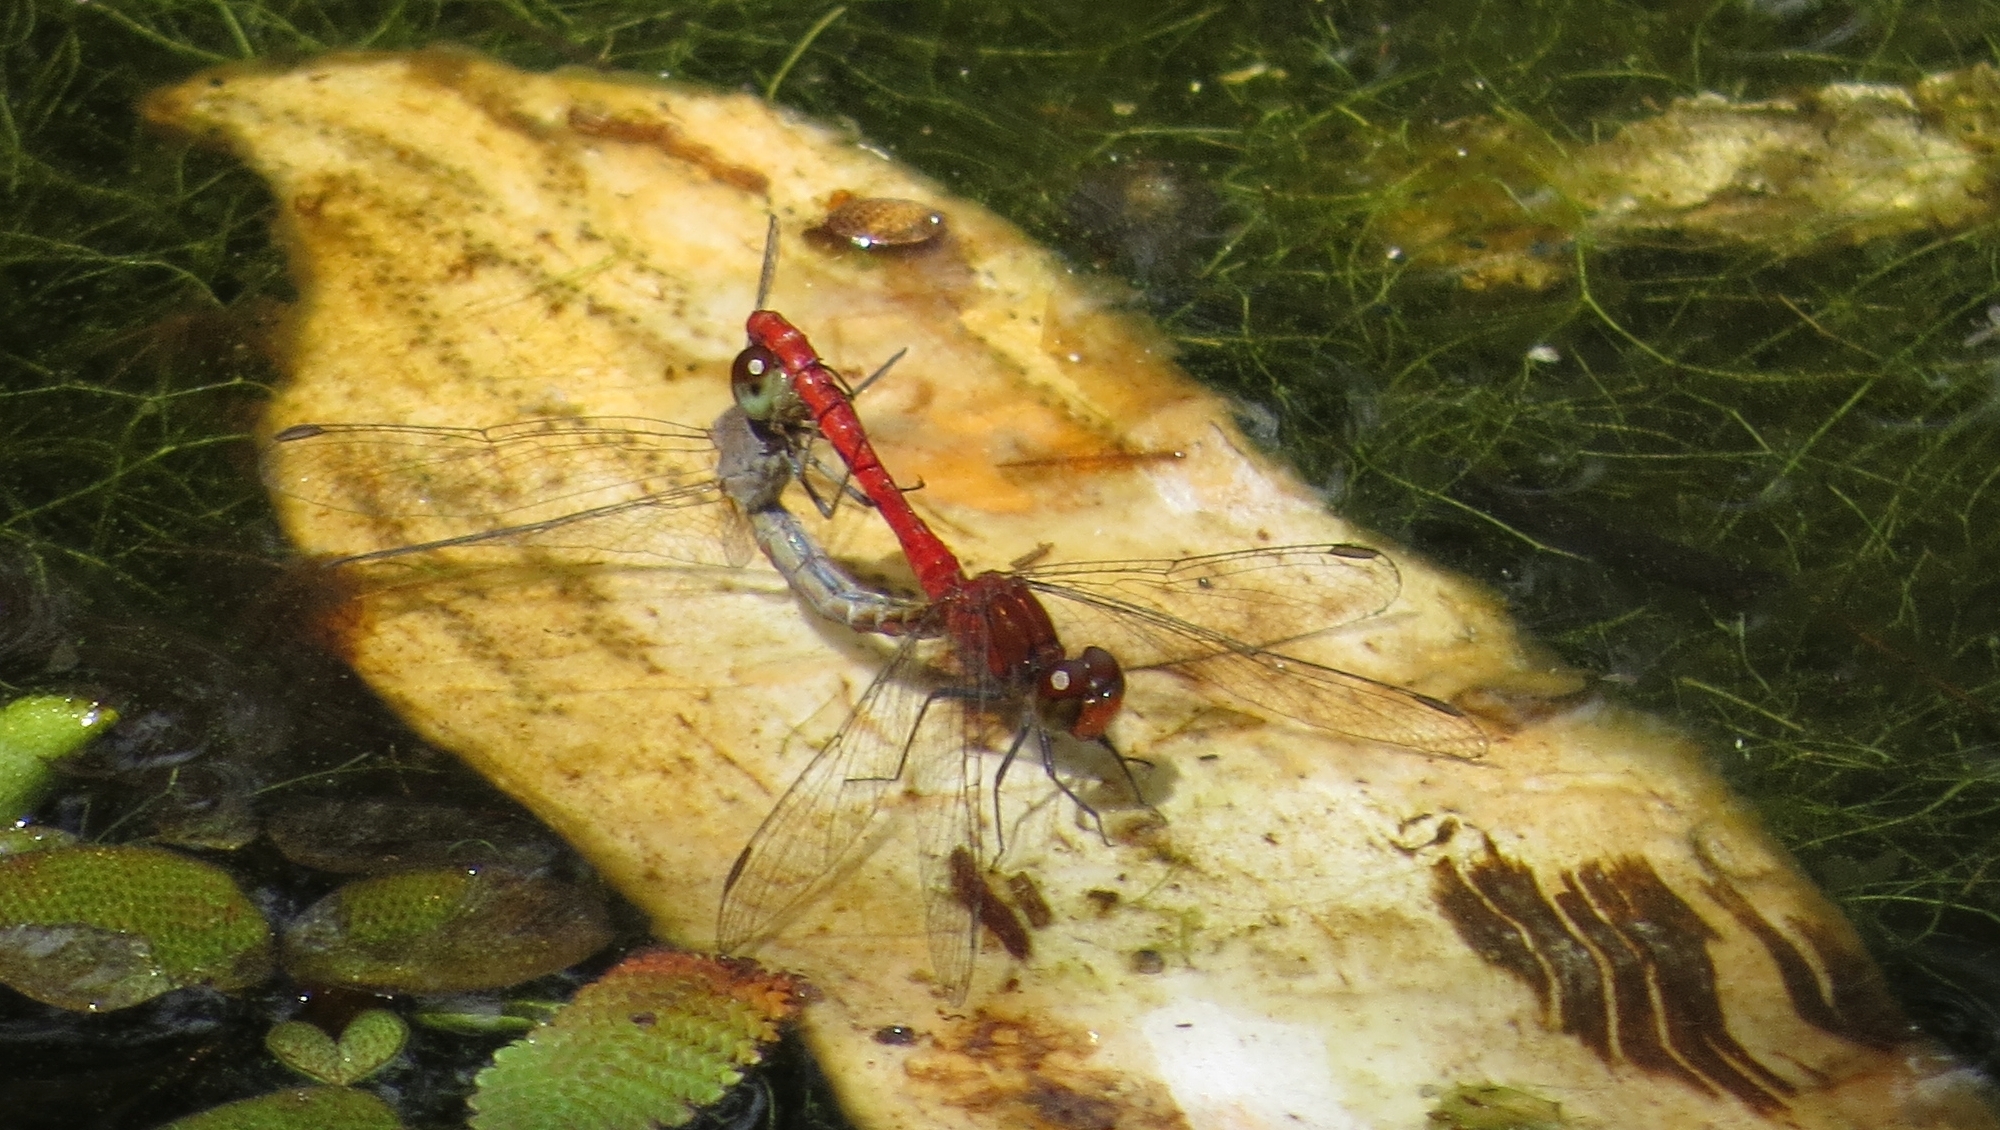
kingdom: Animalia
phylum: Arthropoda
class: Insecta
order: Odonata
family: Libellulidae
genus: Nannodiplax
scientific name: Nannodiplax rubra
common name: Pygmy percher
